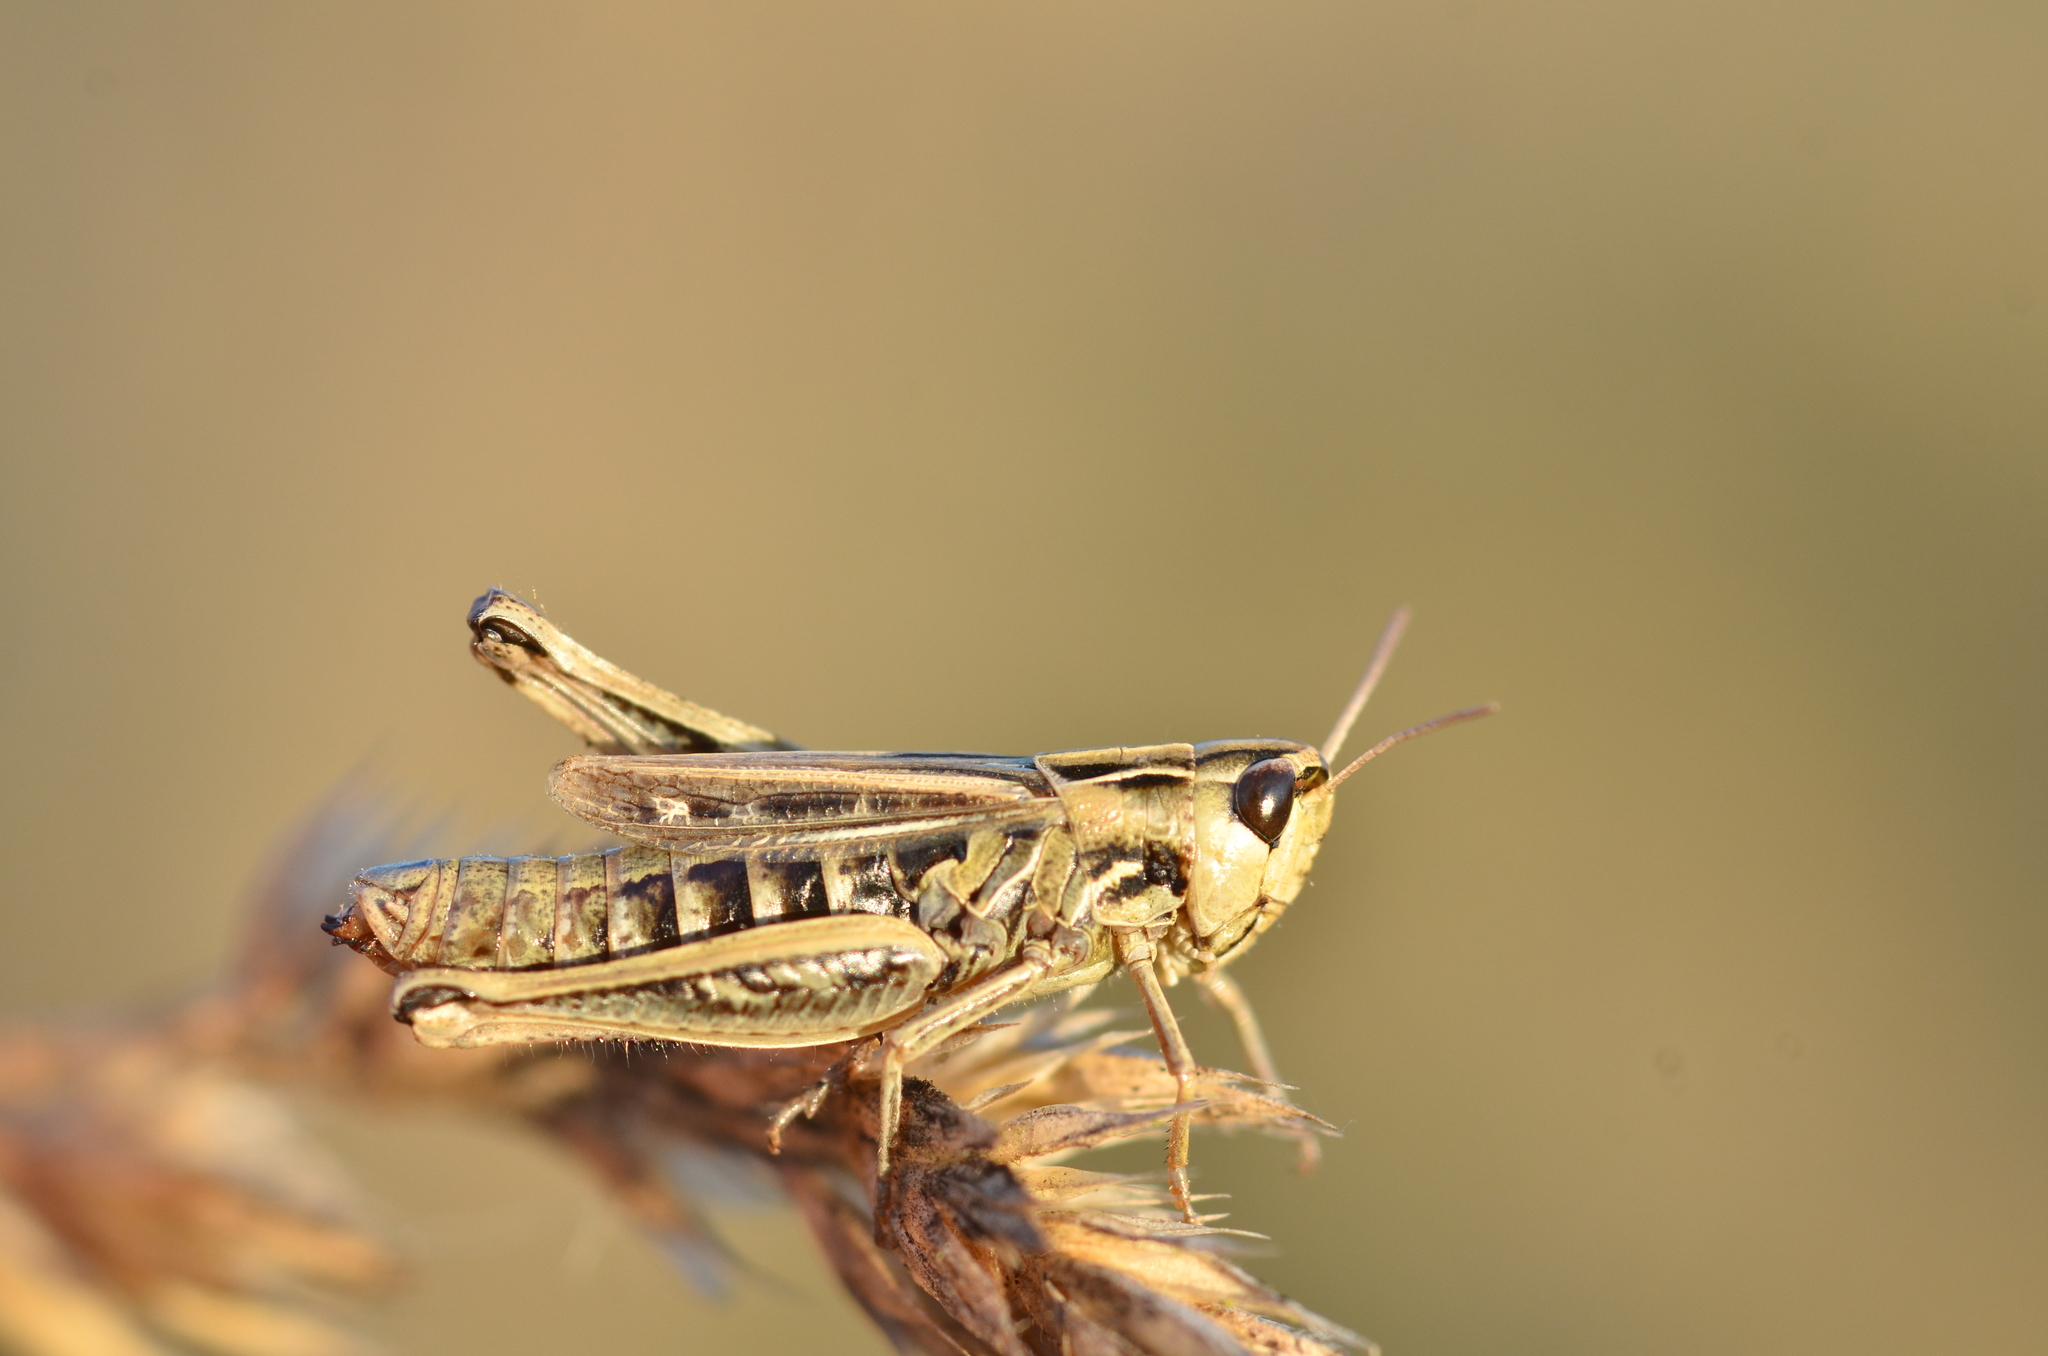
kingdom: Animalia
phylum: Arthropoda
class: Insecta
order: Orthoptera
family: Acrididae
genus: Stenobothrus
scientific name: Stenobothrus stigmaticus
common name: Lesser mottled grasshopper
